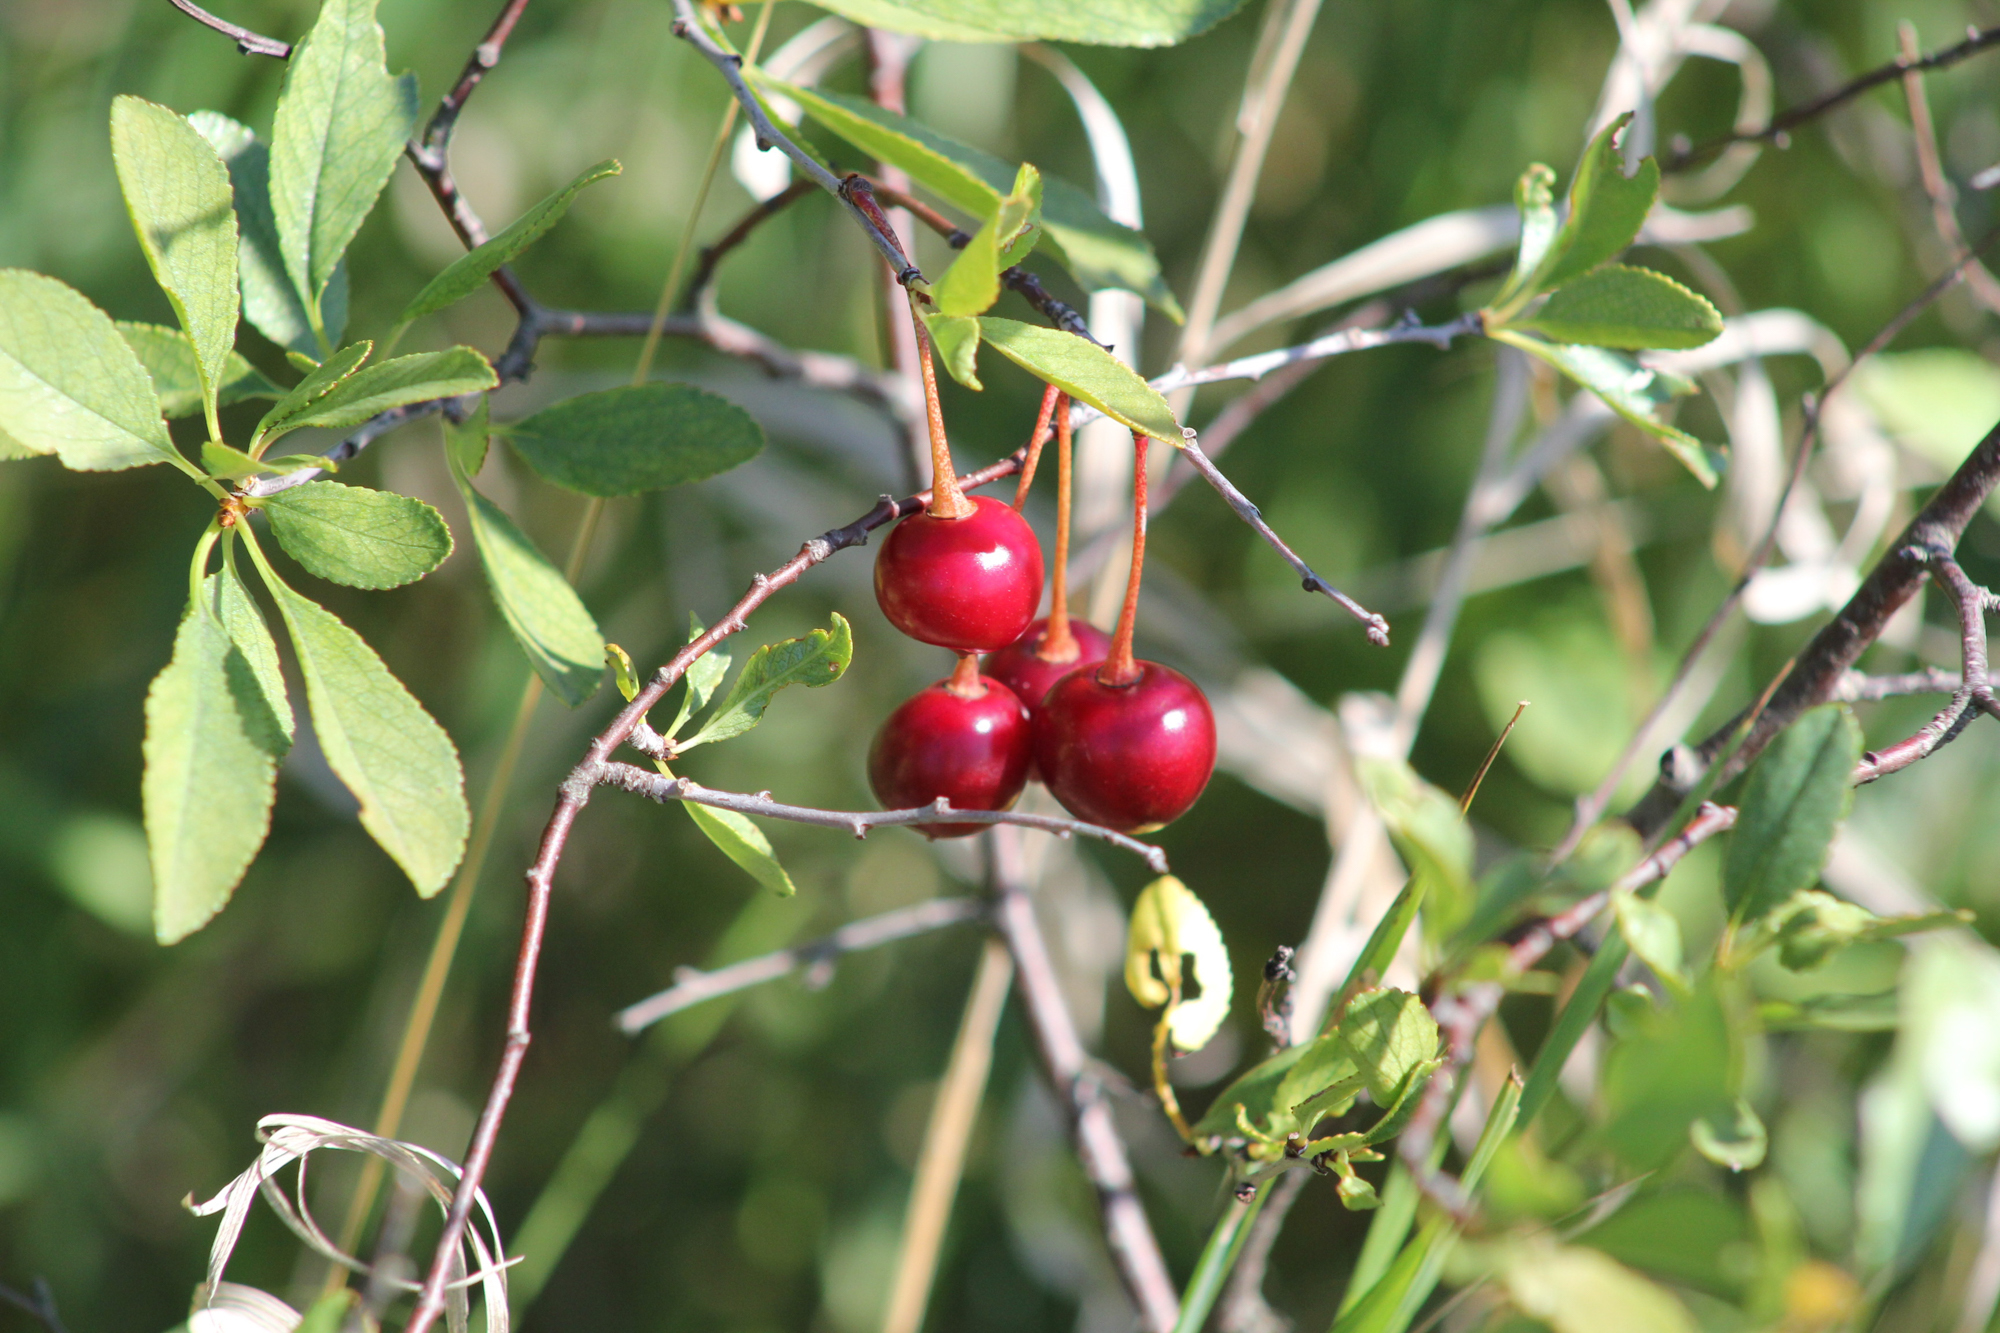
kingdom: Plantae
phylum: Tracheophyta
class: Magnoliopsida
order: Rosales
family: Rosaceae
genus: Prunus
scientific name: Prunus fruticosa
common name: European dwarf cherry
